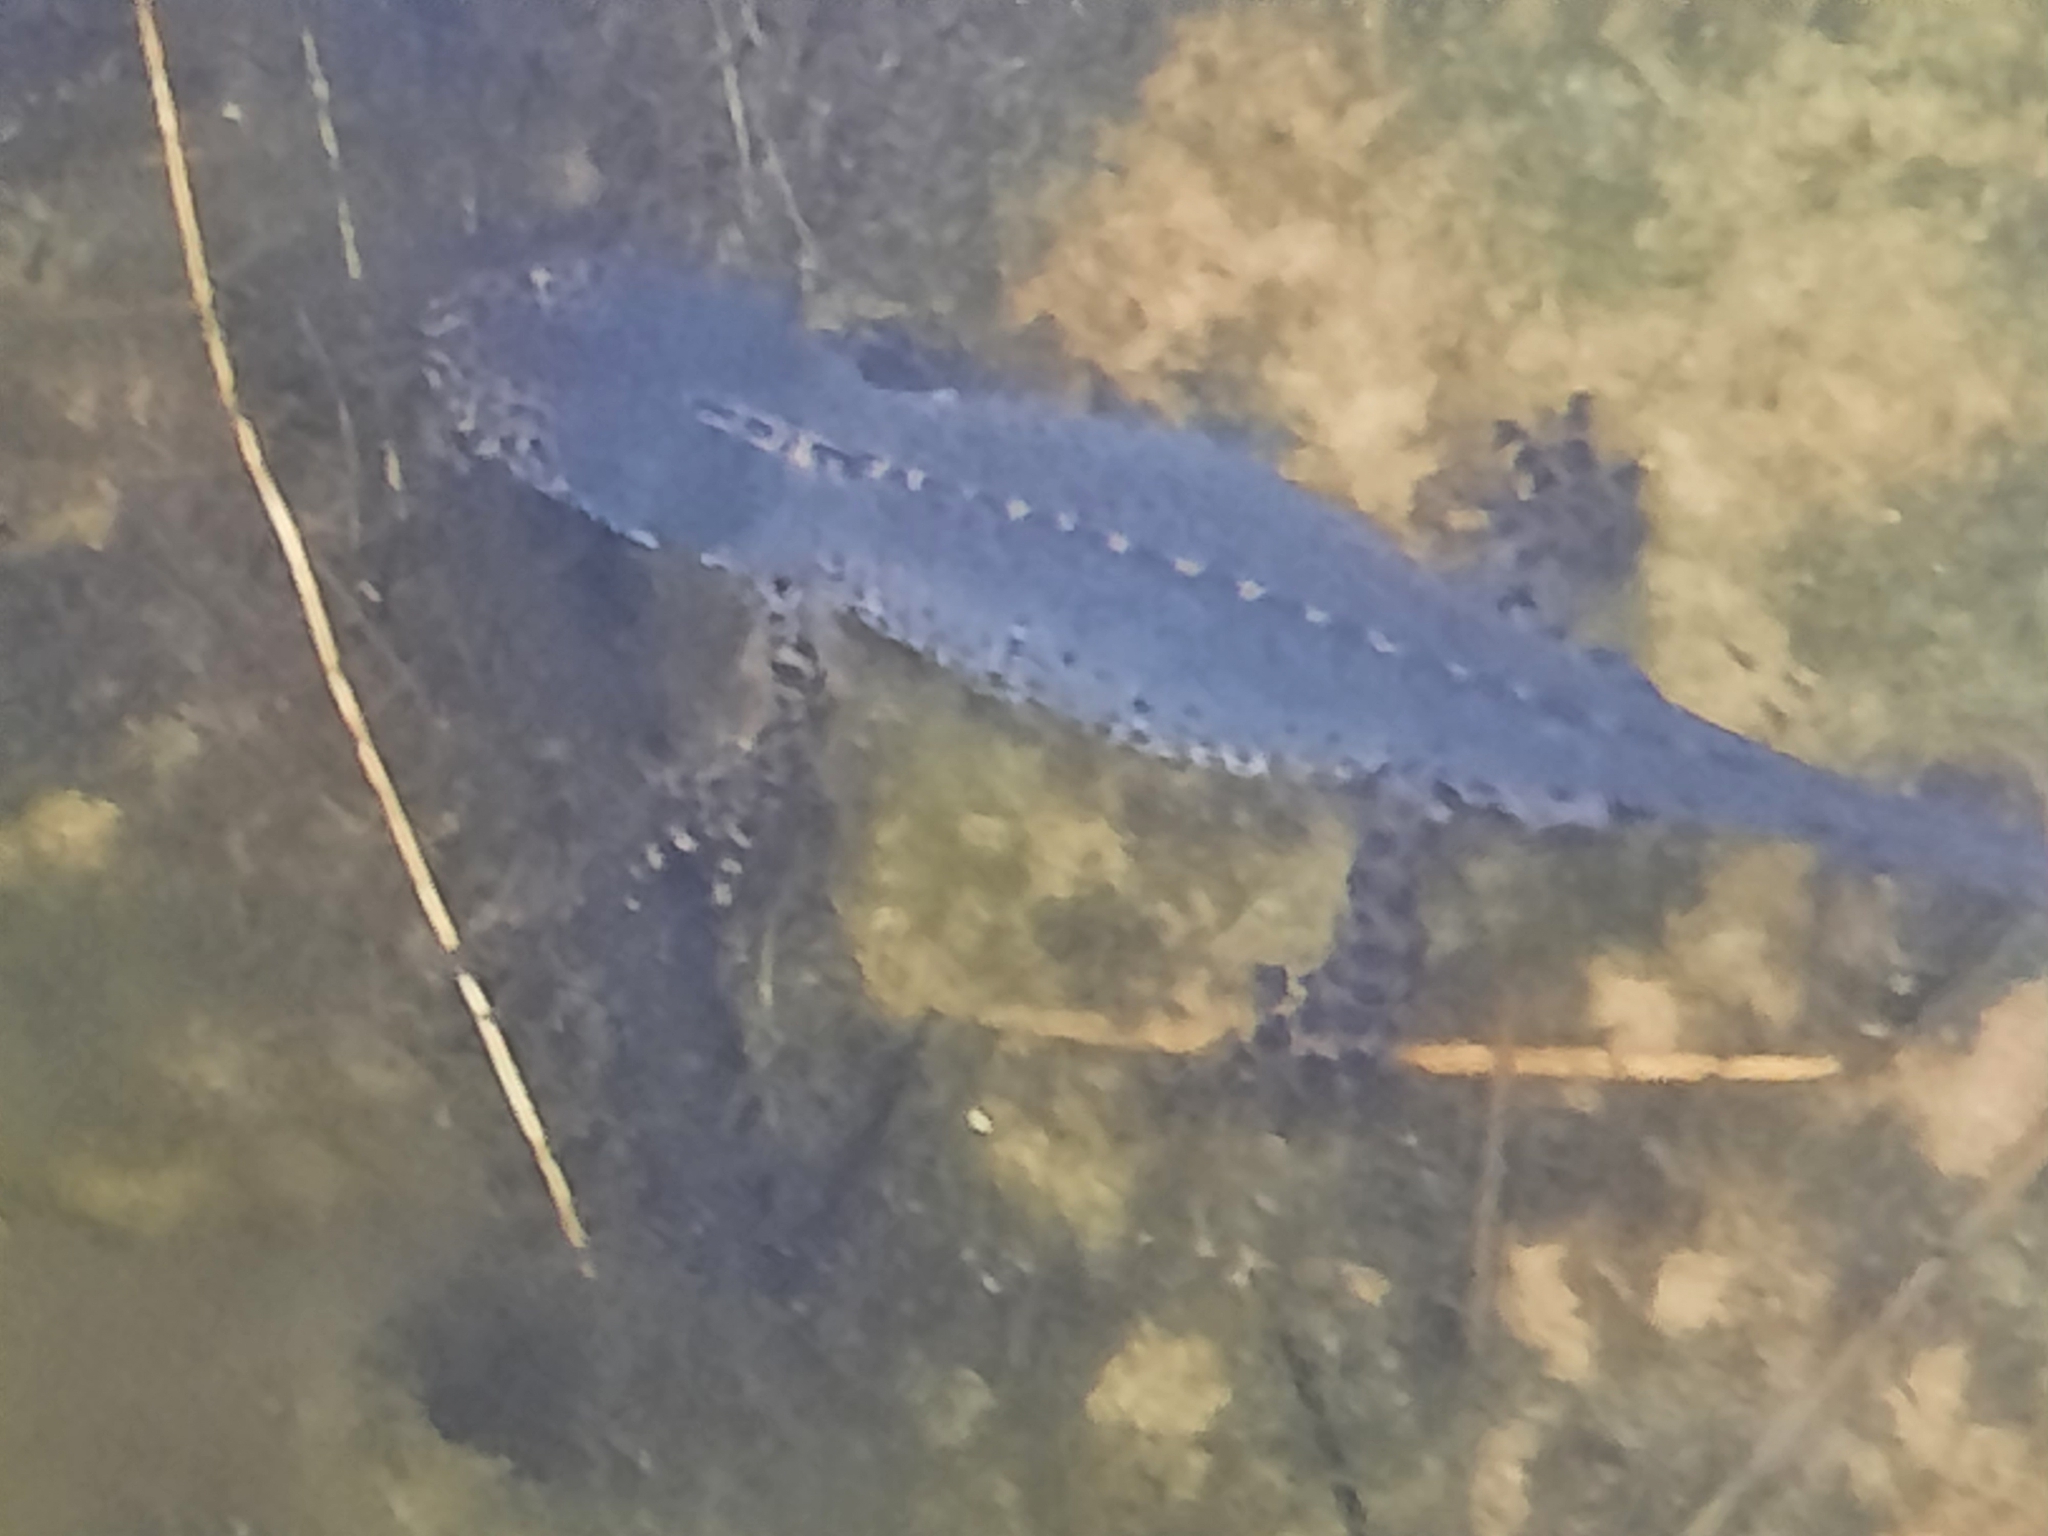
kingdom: Animalia
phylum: Chordata
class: Amphibia
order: Caudata
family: Salamandridae
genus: Ichthyosaura
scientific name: Ichthyosaura alpestris
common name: Alpine newt
